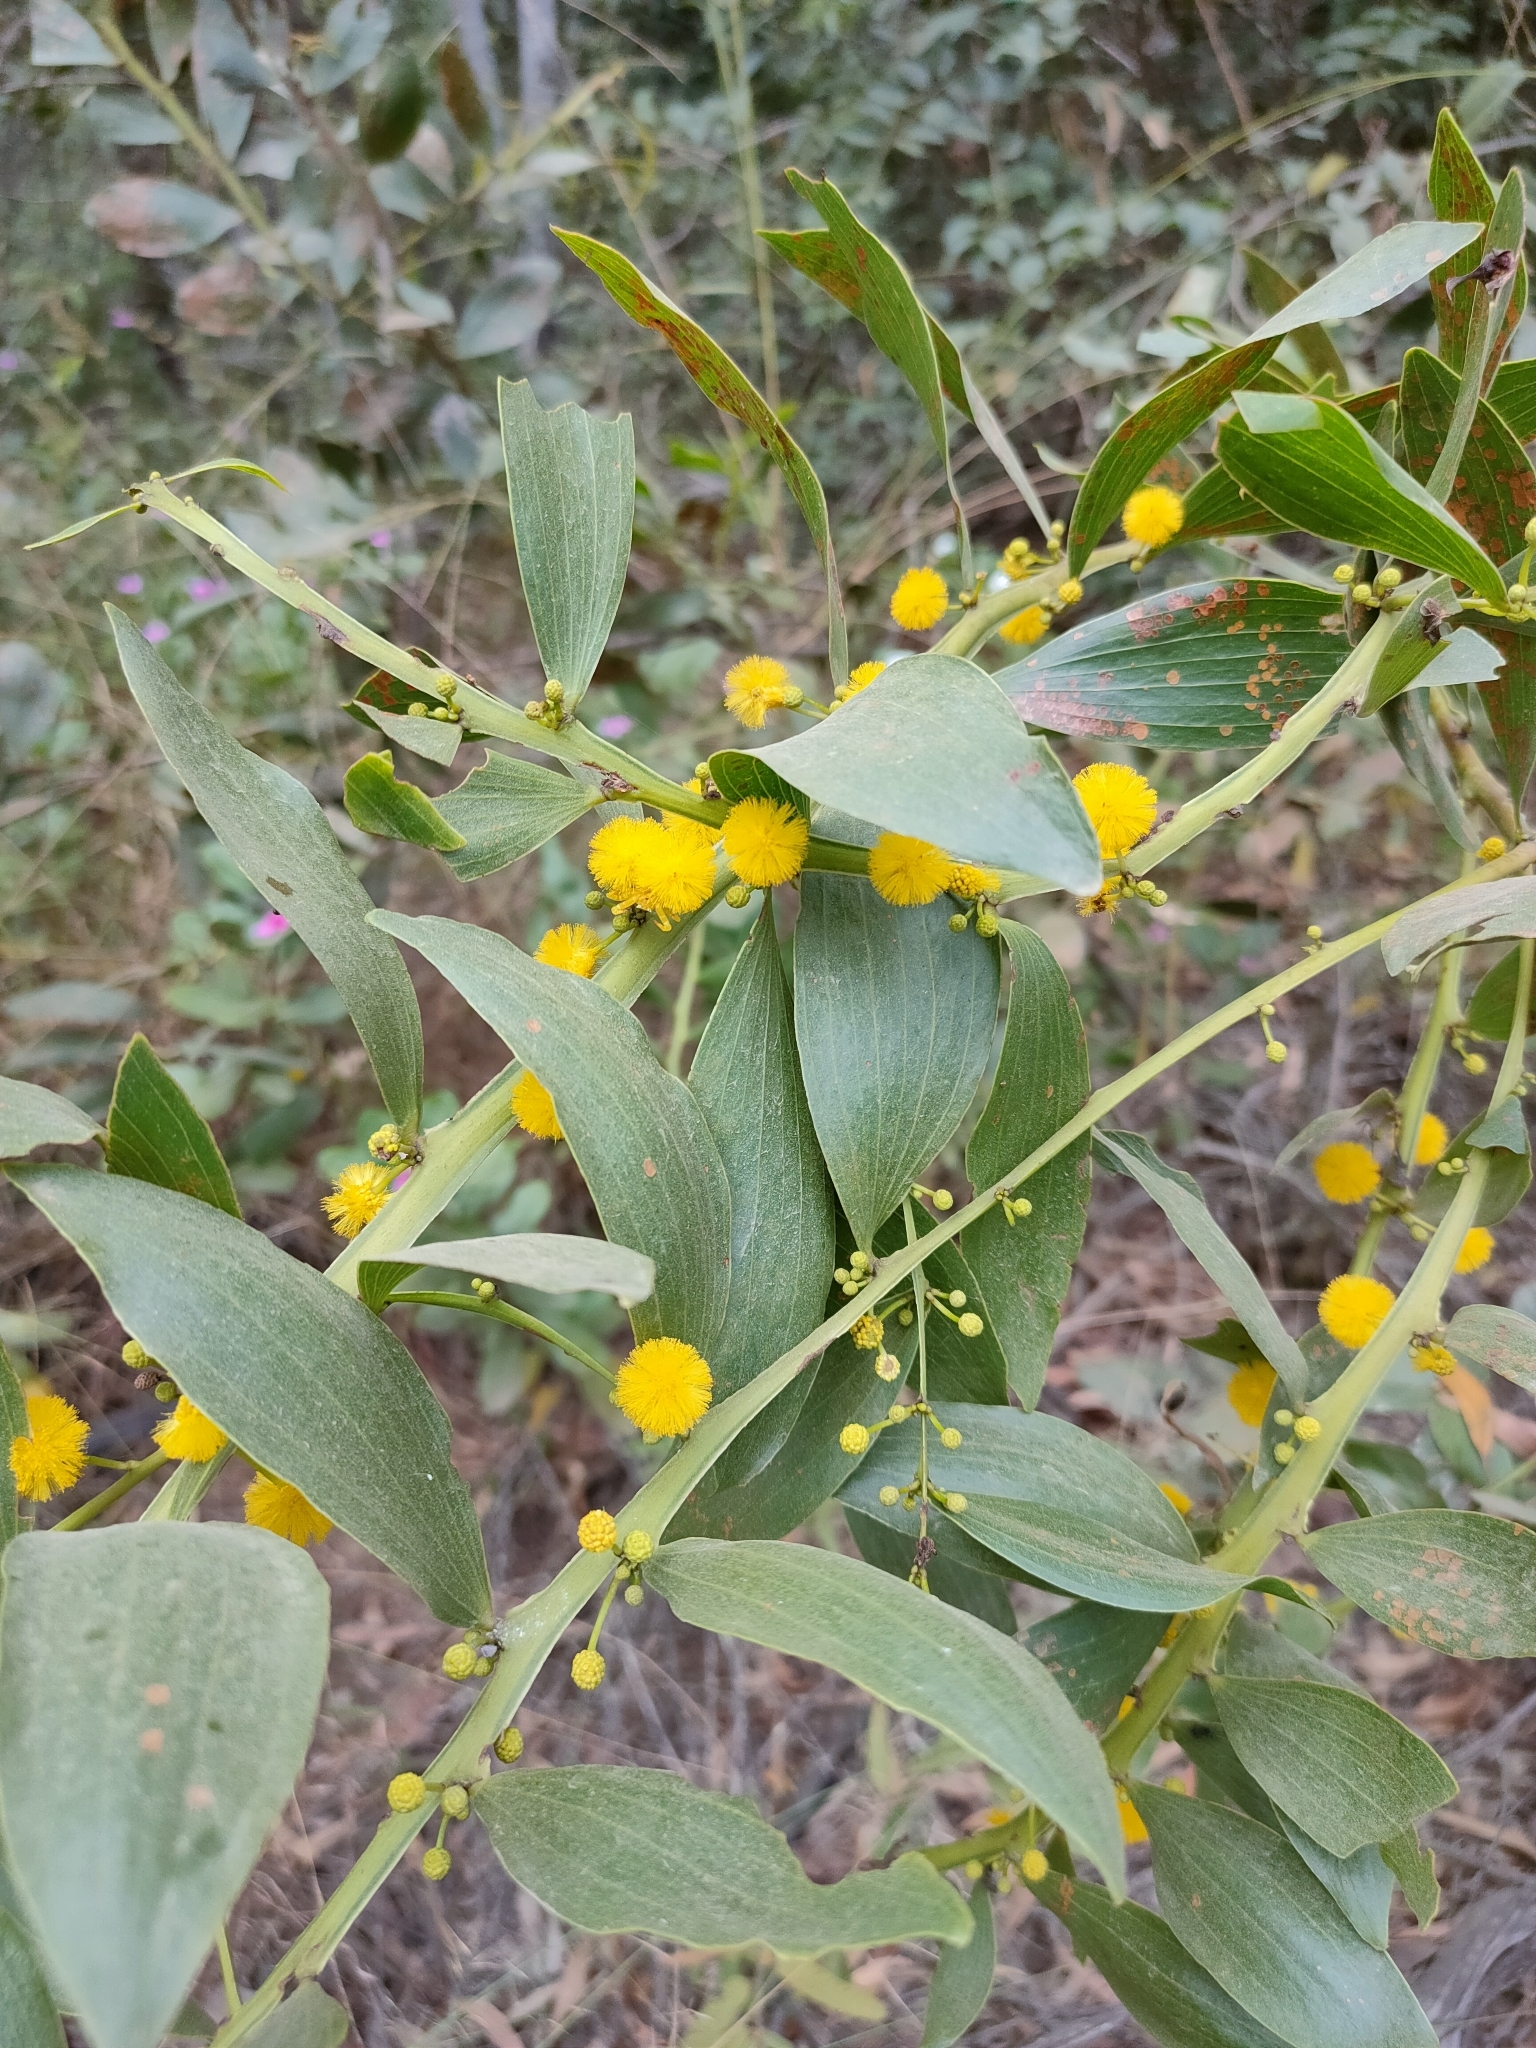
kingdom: Plantae
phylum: Tracheophyta
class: Magnoliopsida
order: Fabales
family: Fabaceae
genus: Acacia
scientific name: Acacia complanata
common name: Flat-stemmed wattle
